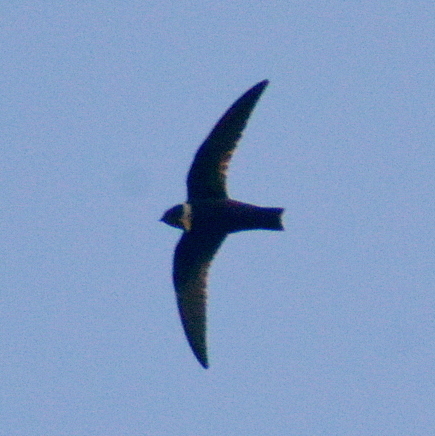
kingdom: Animalia
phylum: Chordata
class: Aves
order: Apodiformes
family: Apodidae
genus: Streptoprocne
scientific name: Streptoprocne zonaris
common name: White-collared swift
